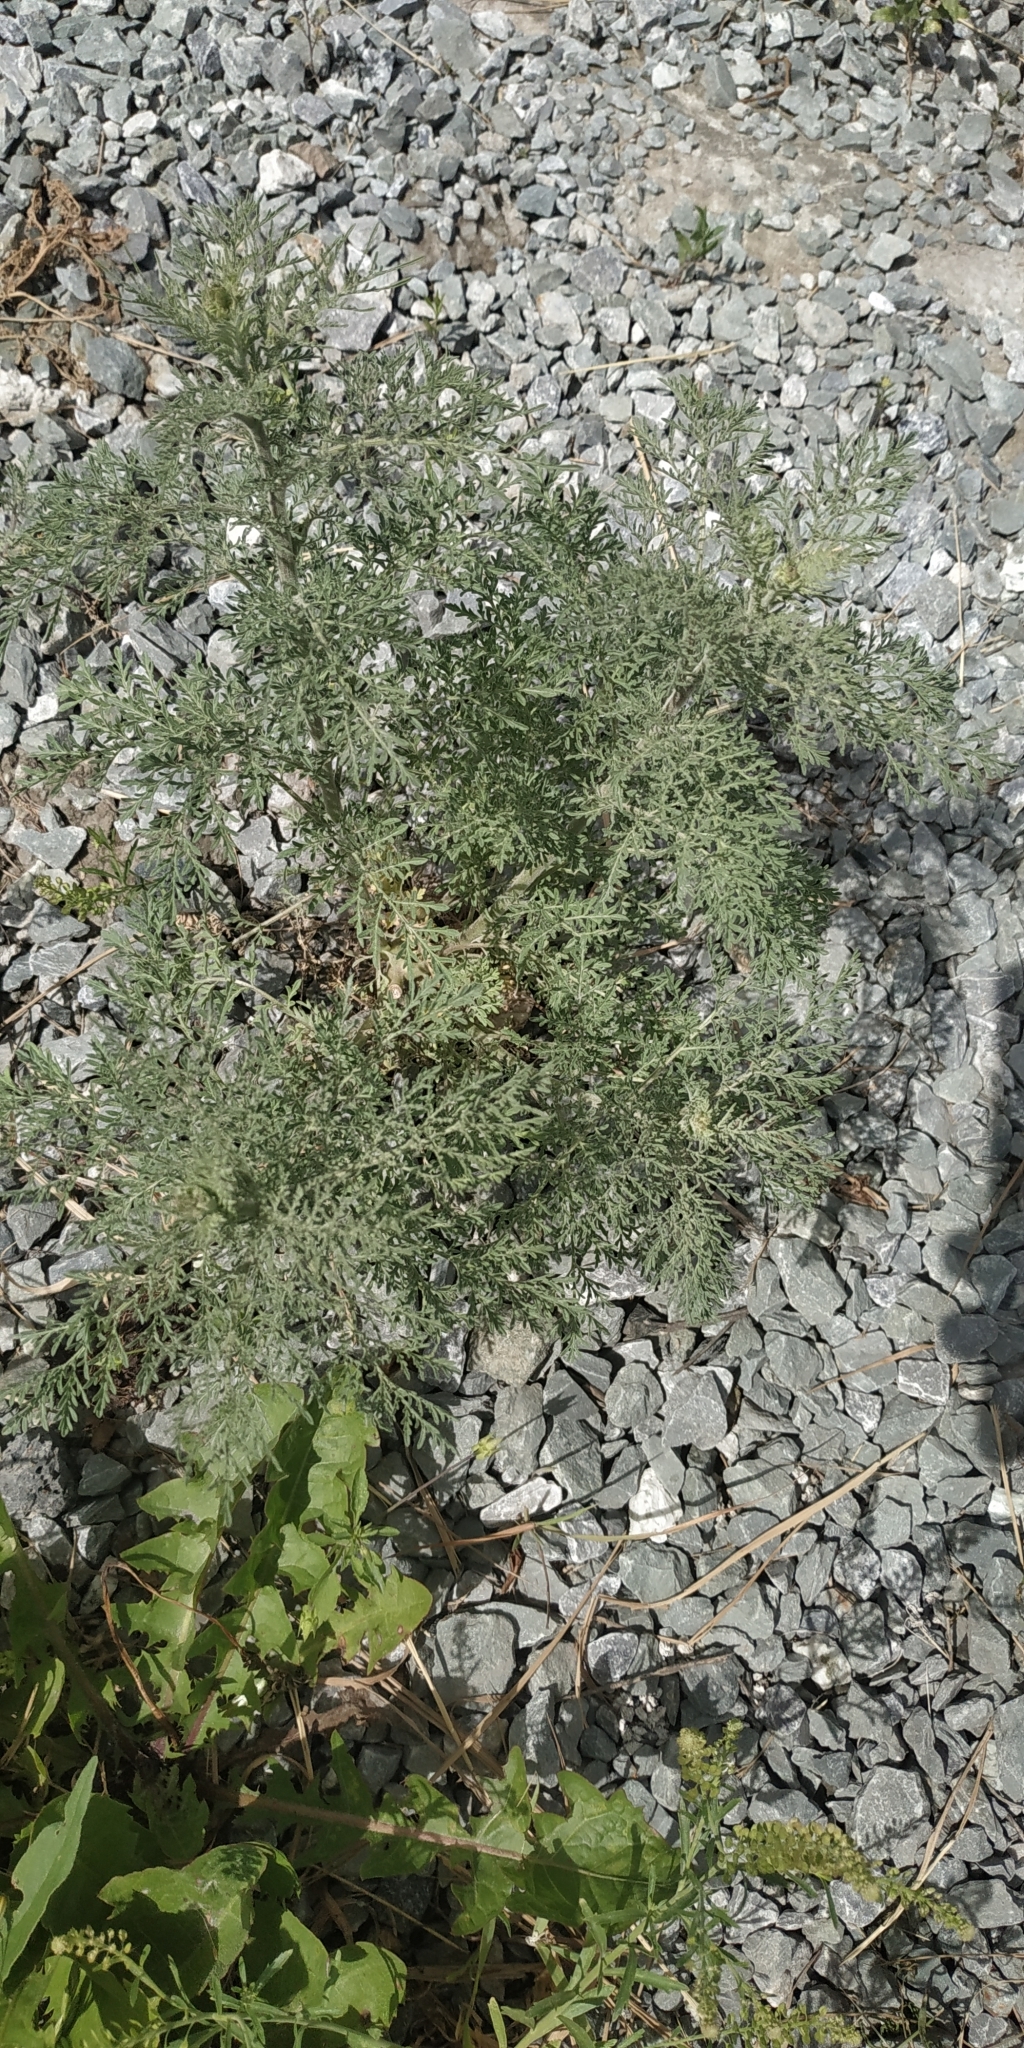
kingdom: Plantae
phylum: Tracheophyta
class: Magnoliopsida
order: Brassicales
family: Brassicaceae
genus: Descurainia
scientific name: Descurainia sophia
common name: Flixweed
